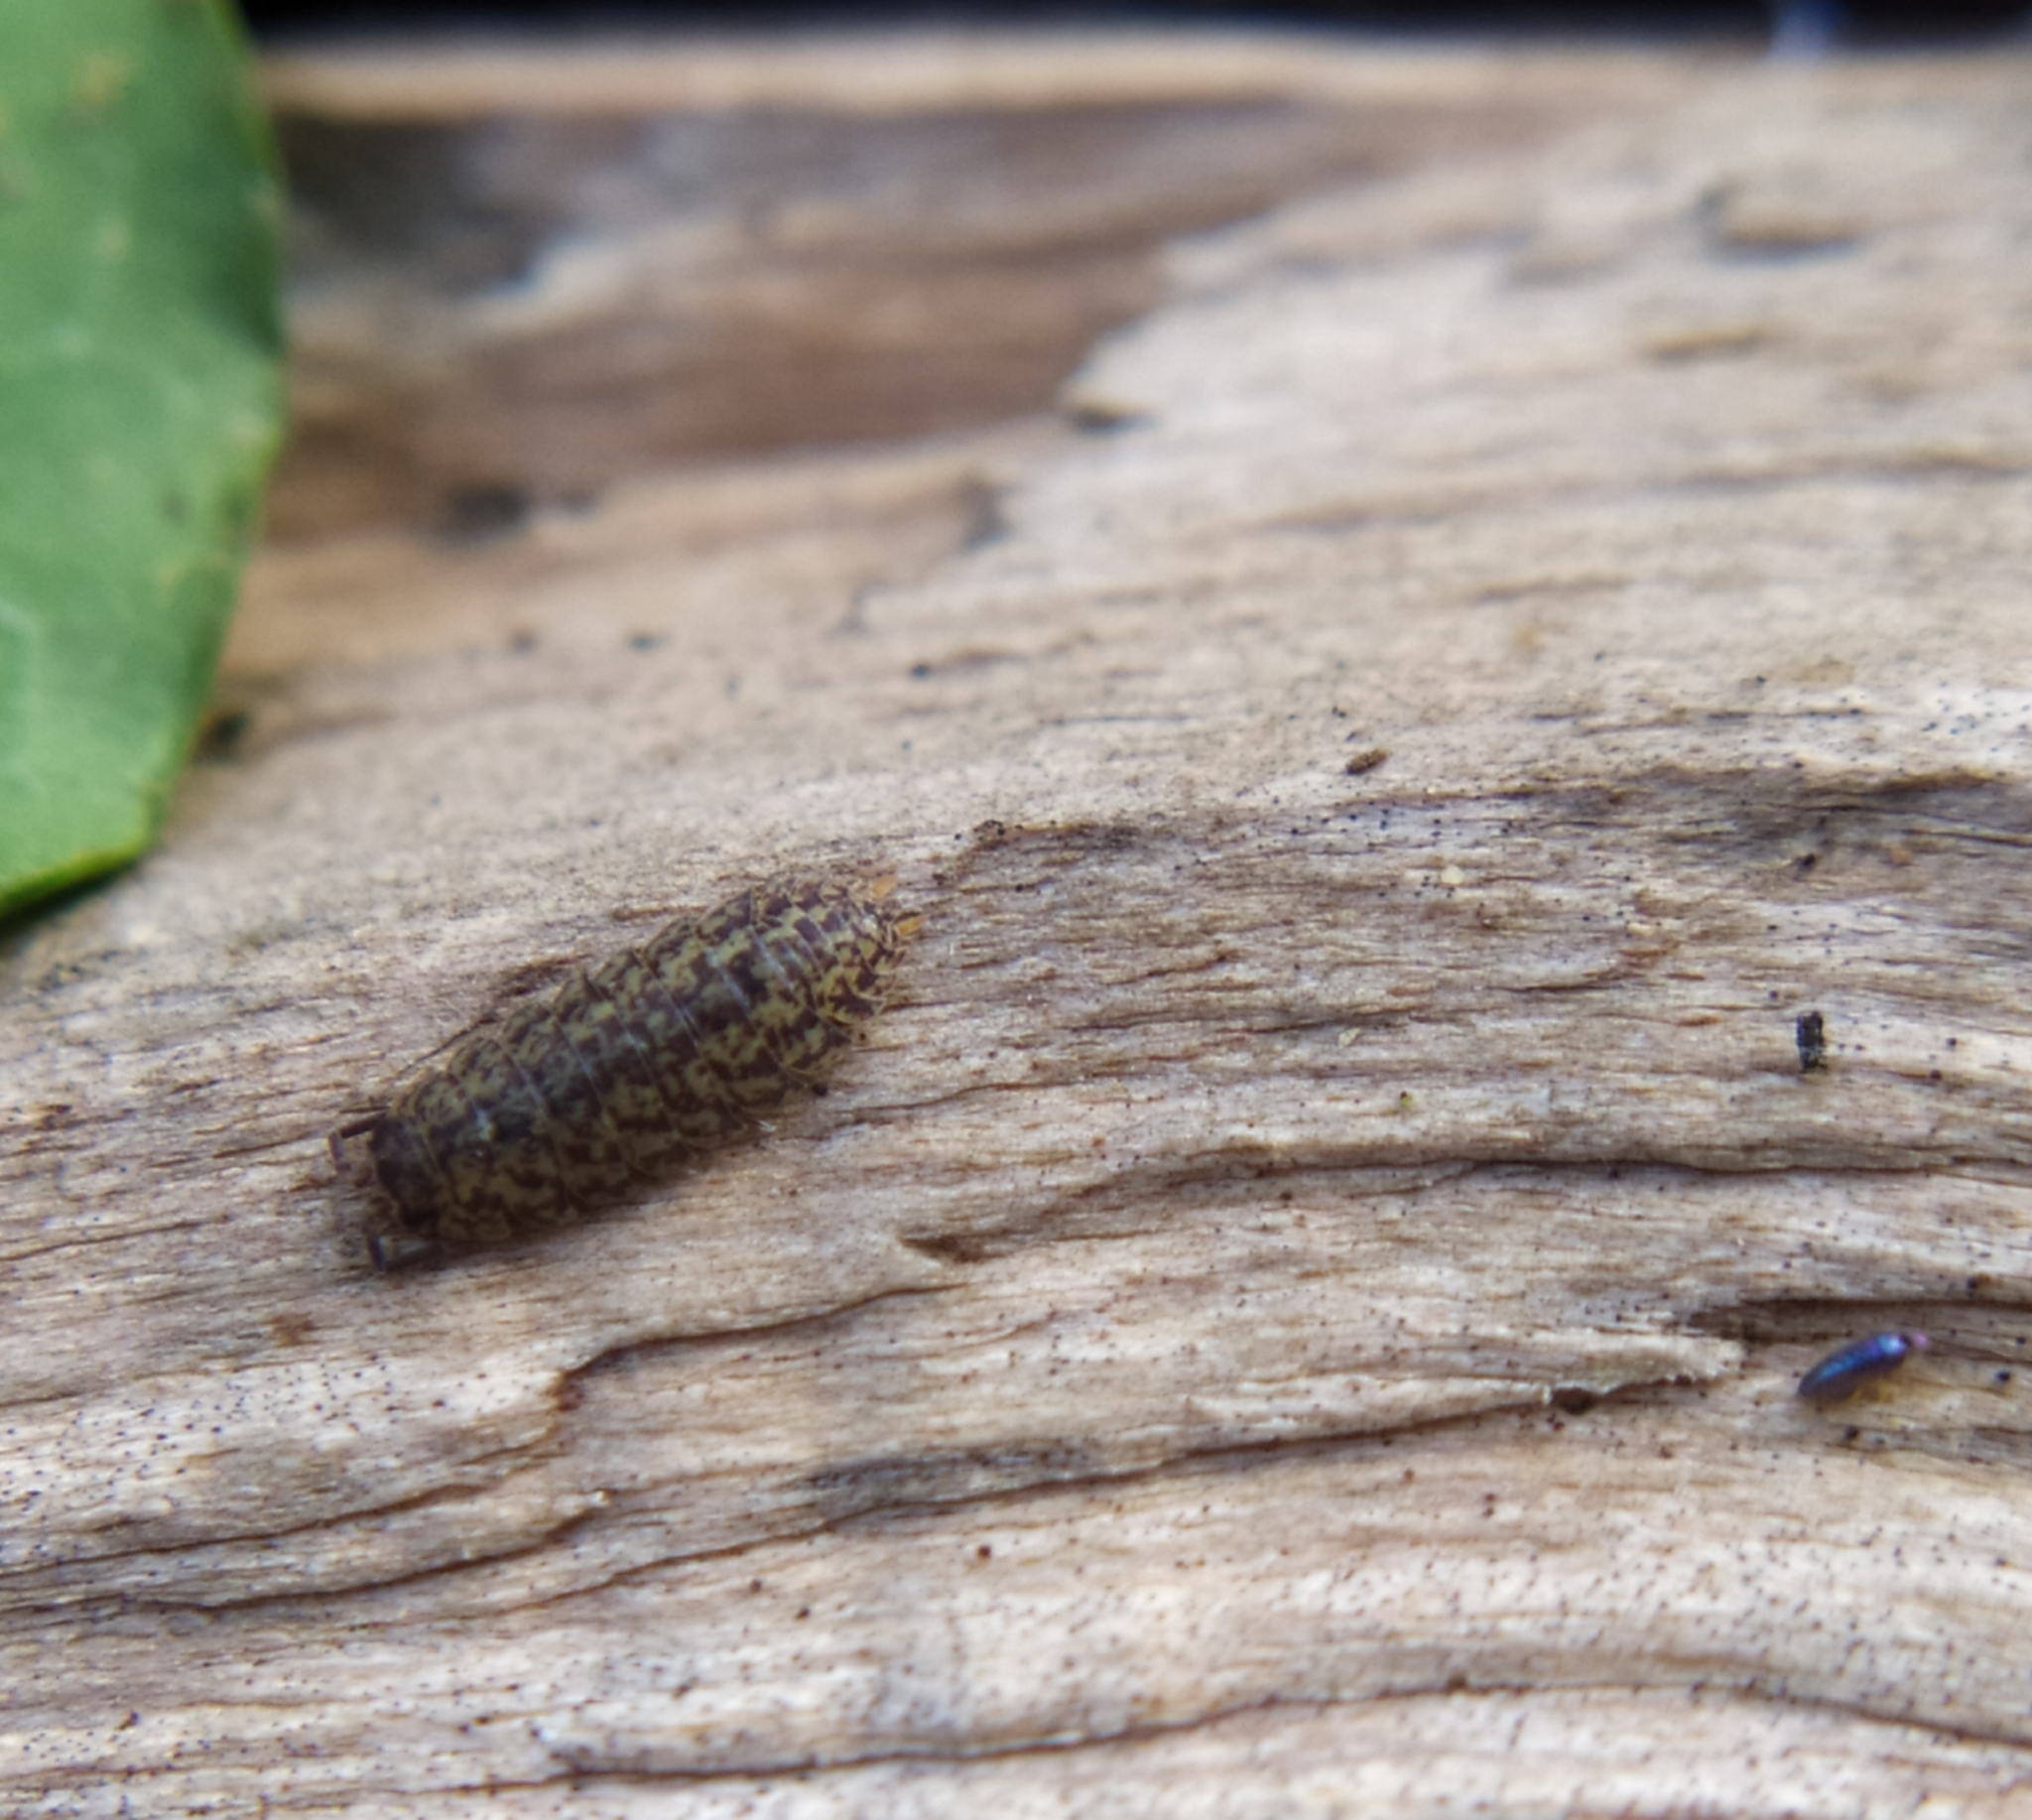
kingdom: Animalia
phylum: Arthropoda
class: Malacostraca
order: Isopoda
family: Trachelipodidae
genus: Porcellium
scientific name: Porcellium collicola
